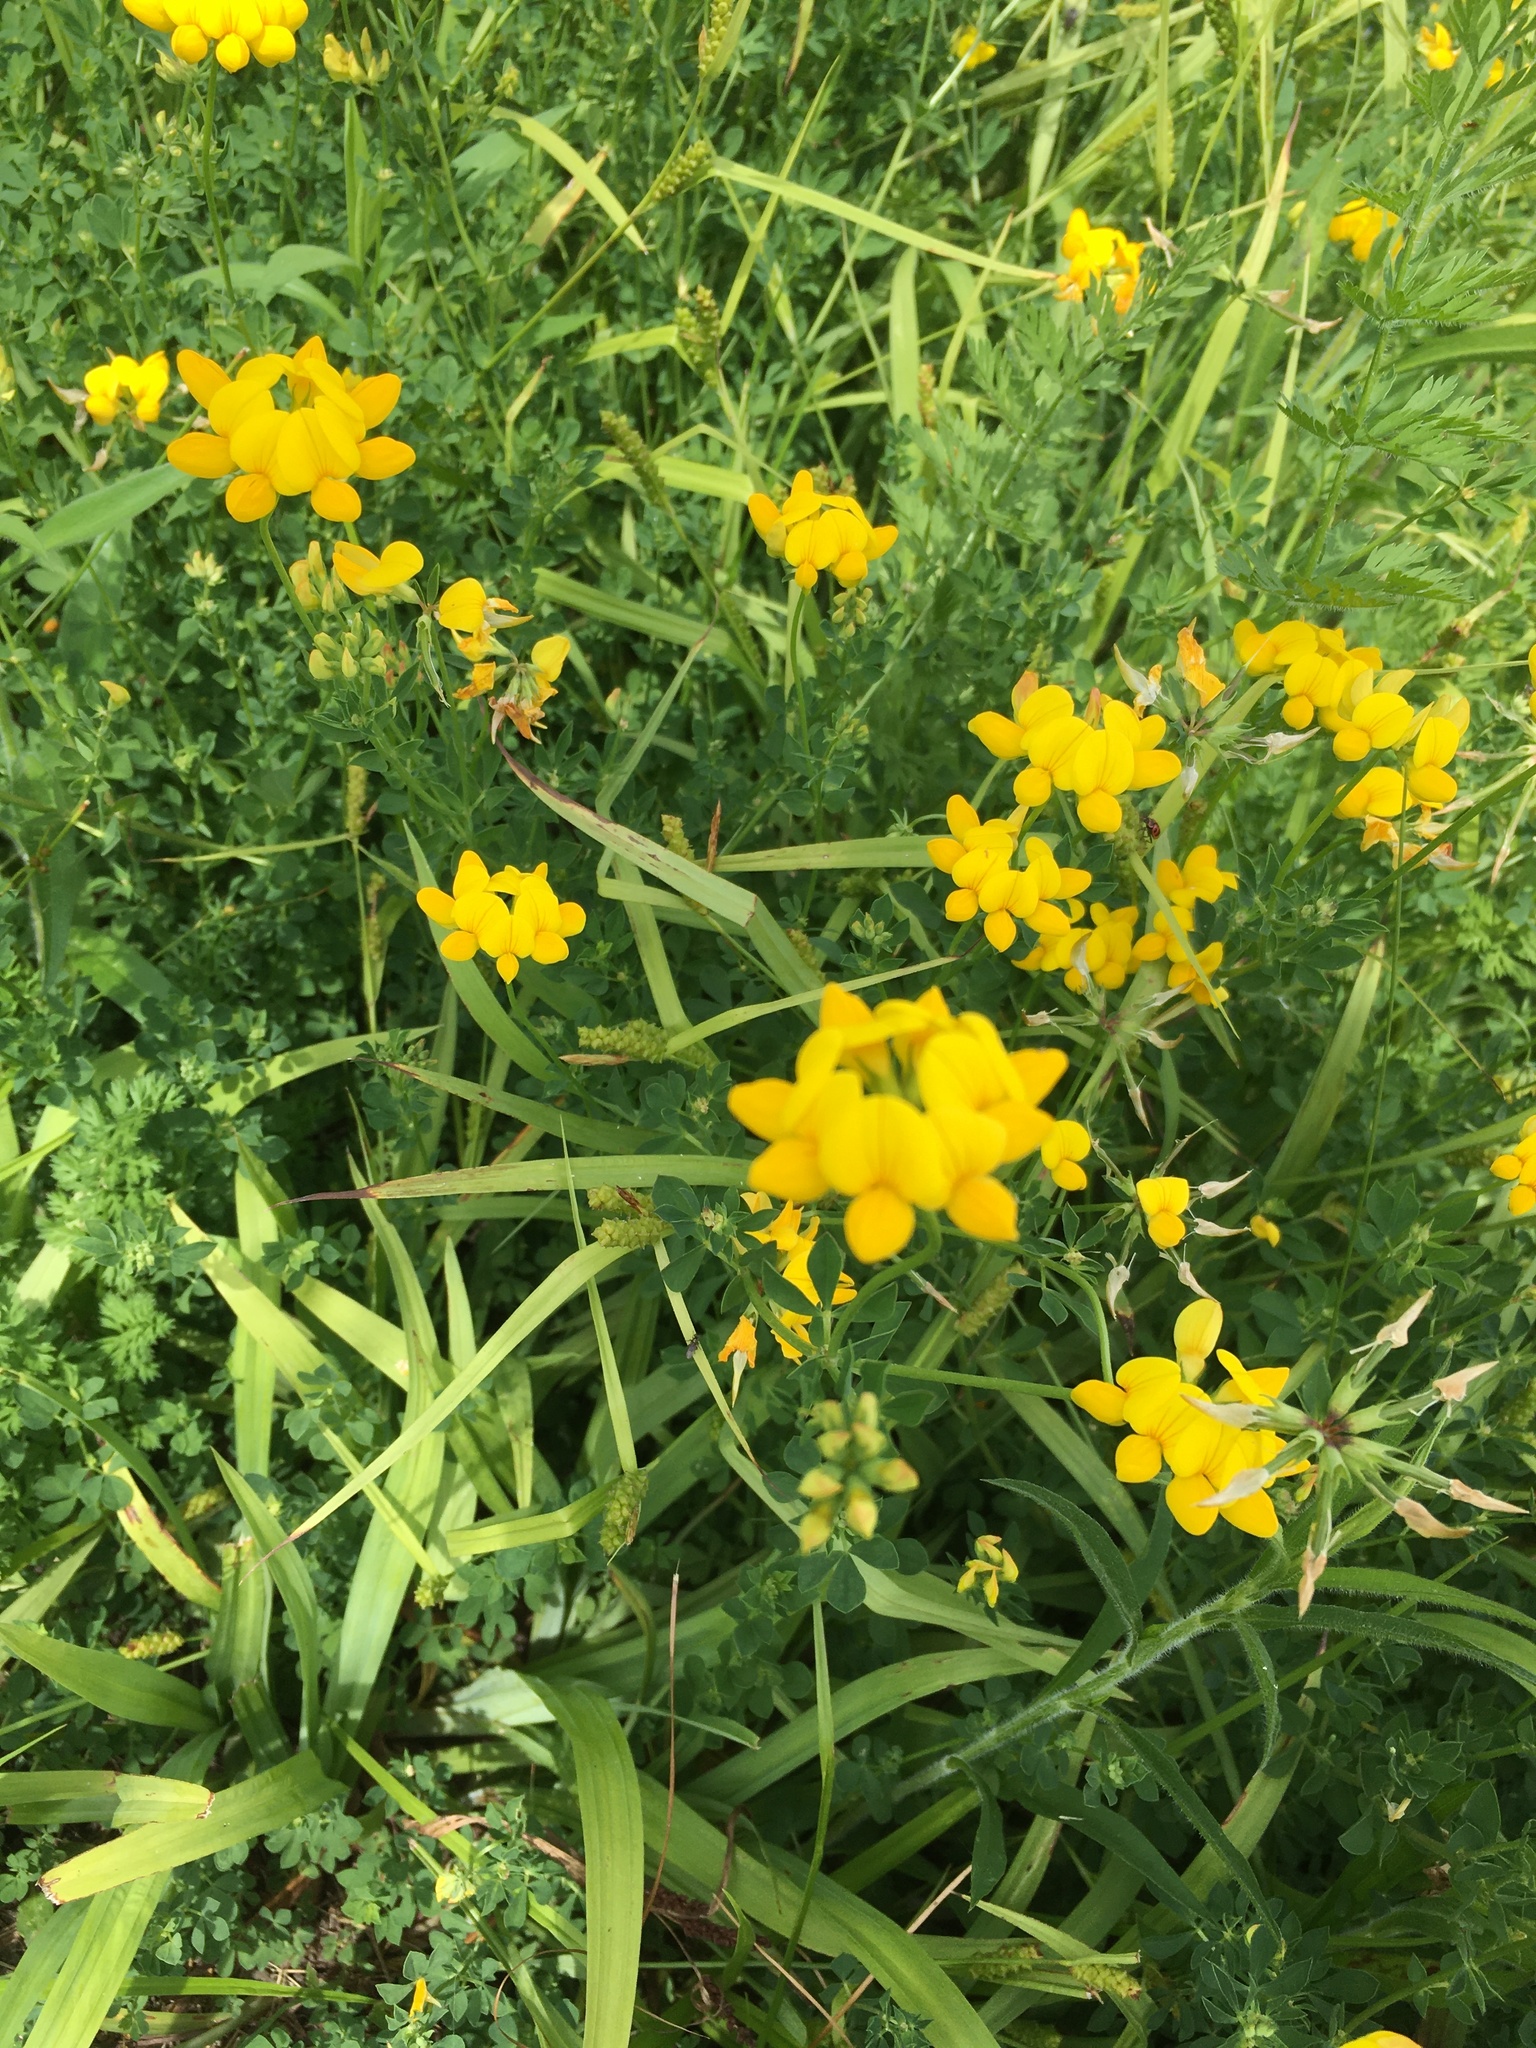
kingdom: Plantae
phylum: Tracheophyta
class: Magnoliopsida
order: Fabales
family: Fabaceae
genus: Lotus
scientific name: Lotus corniculatus
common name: Common bird's-foot-trefoil
